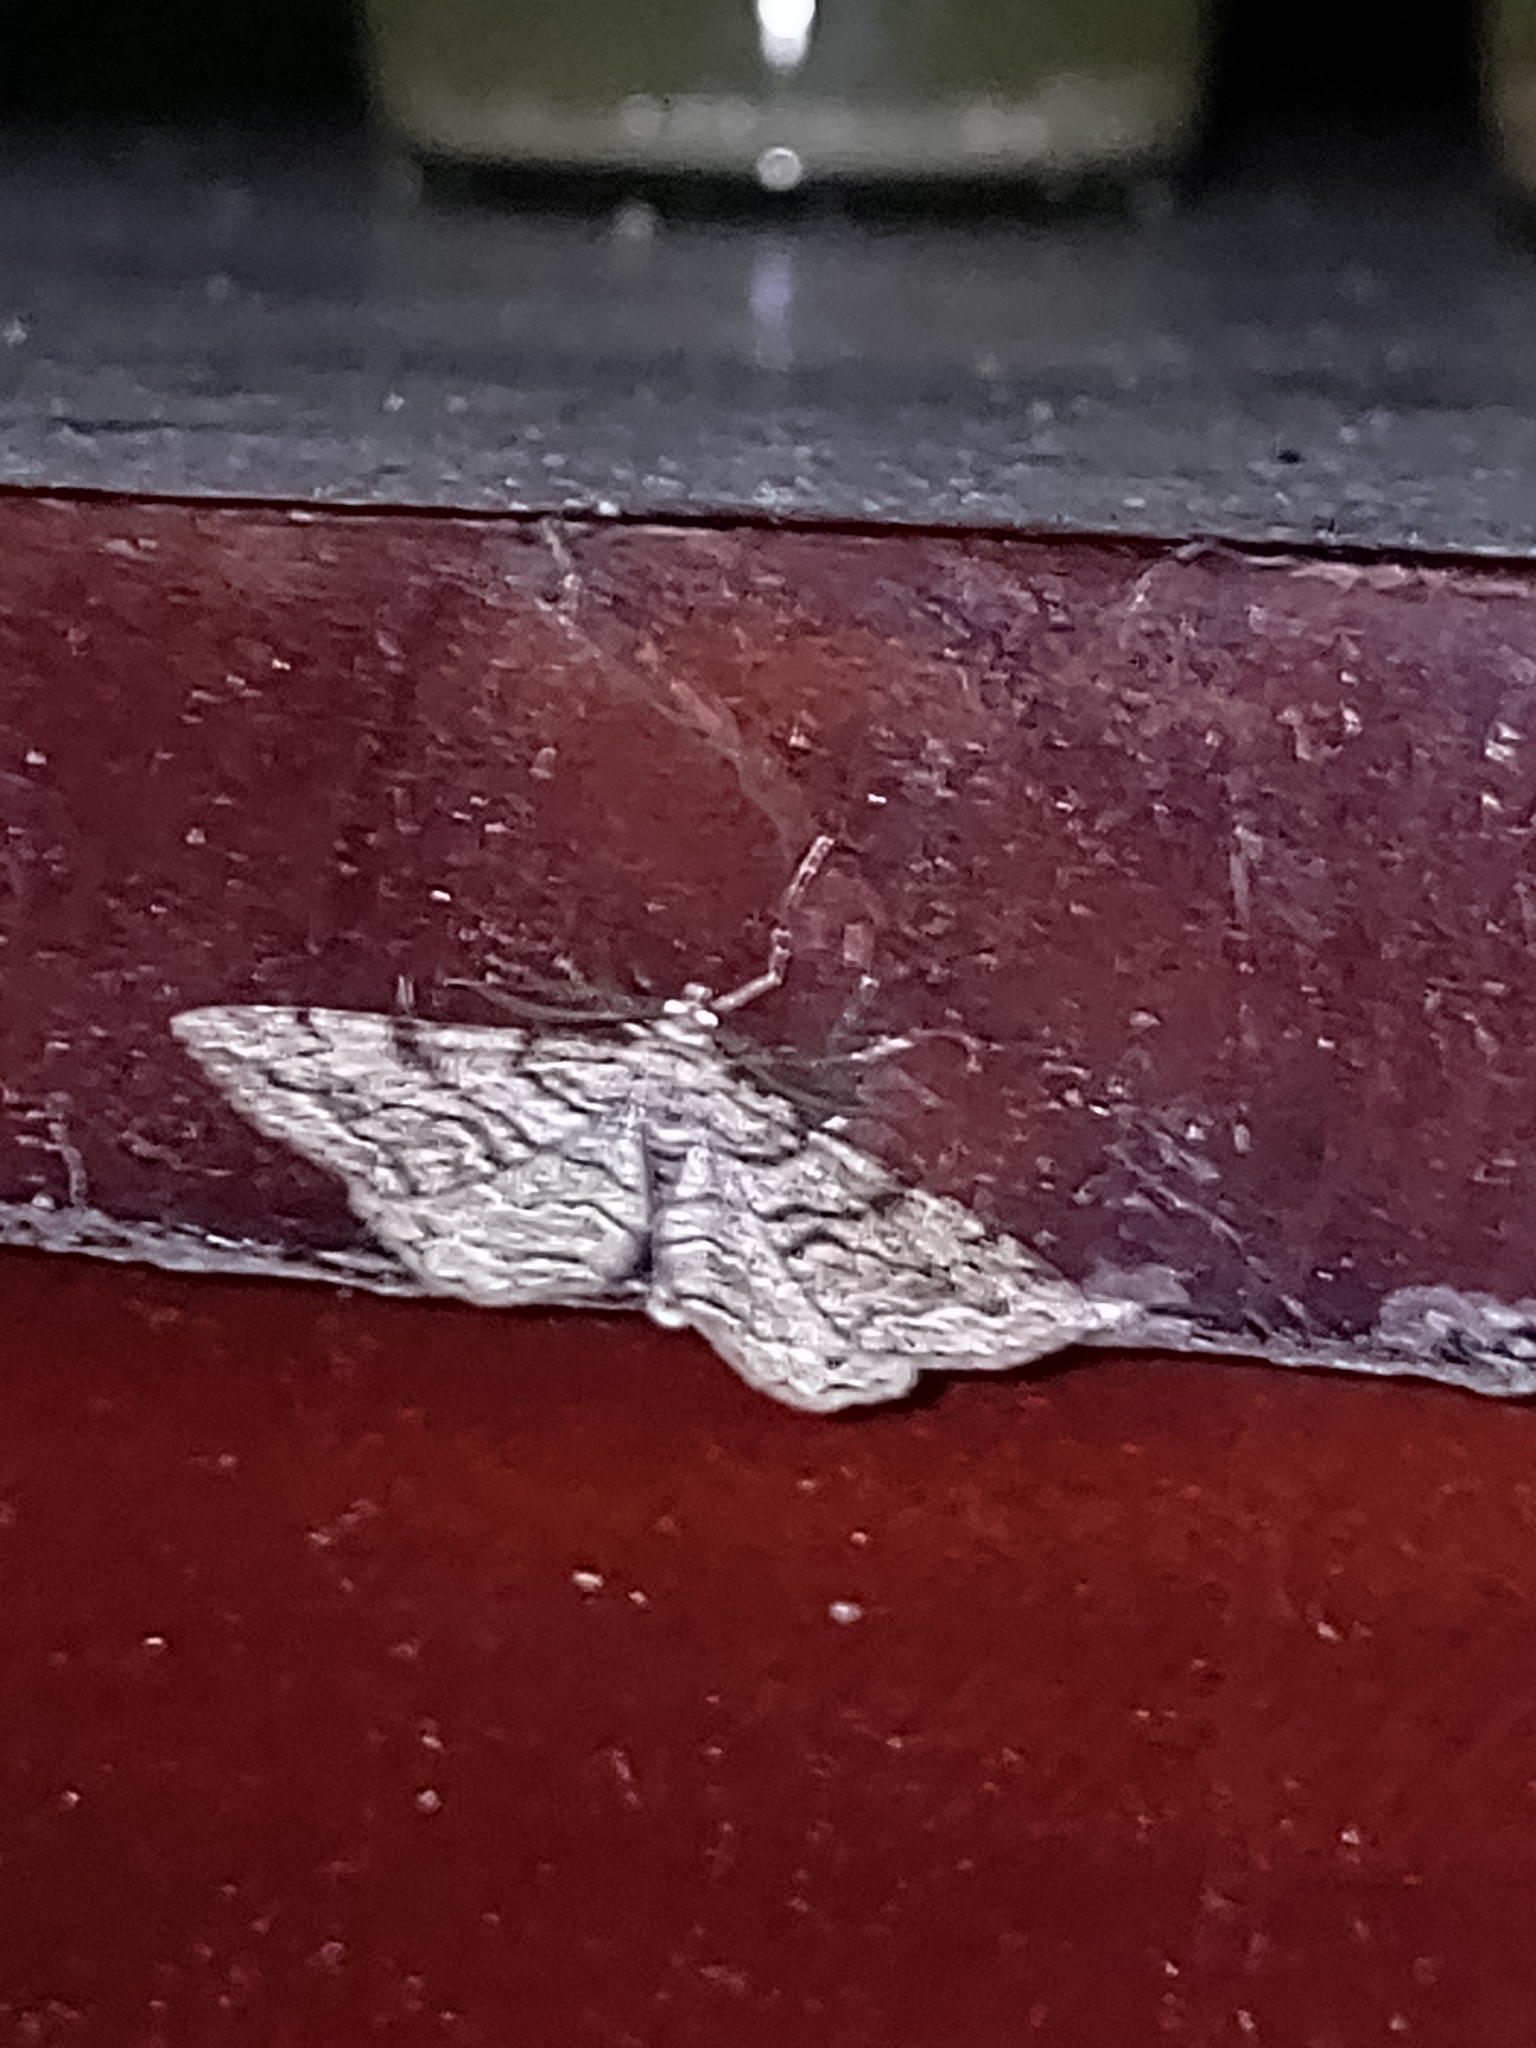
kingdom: Animalia
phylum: Arthropoda
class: Insecta
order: Lepidoptera
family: Geometridae
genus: Peribatodes
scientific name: Peribatodes secundaria
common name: Feathered beauty
